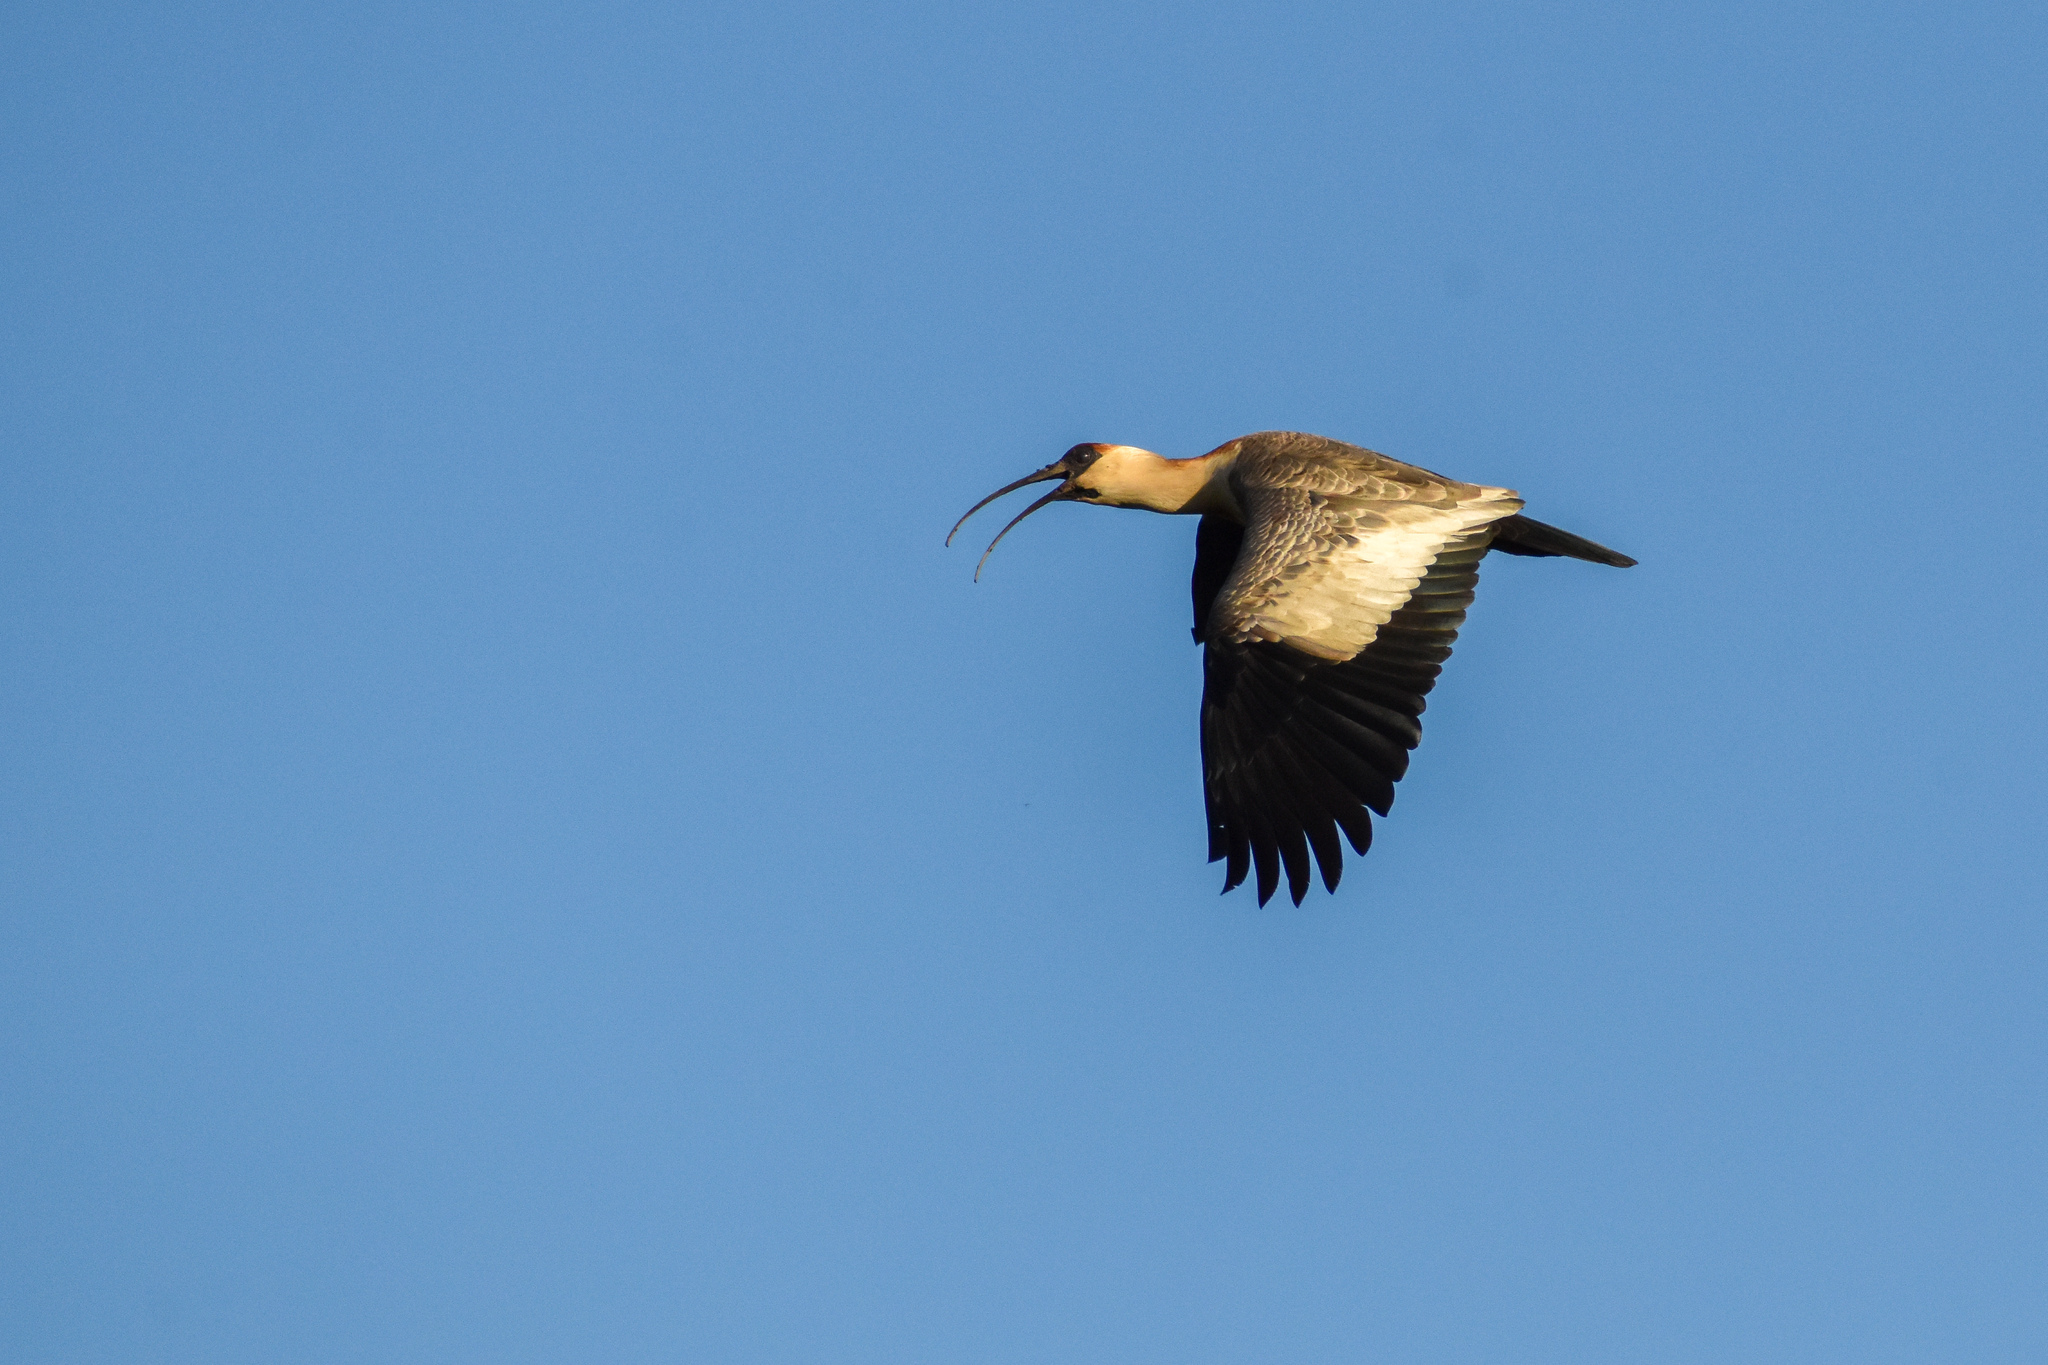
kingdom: Animalia
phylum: Chordata
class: Aves
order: Pelecaniformes
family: Threskiornithidae
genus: Theristicus
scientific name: Theristicus caudatus
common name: Buff-necked ibis
